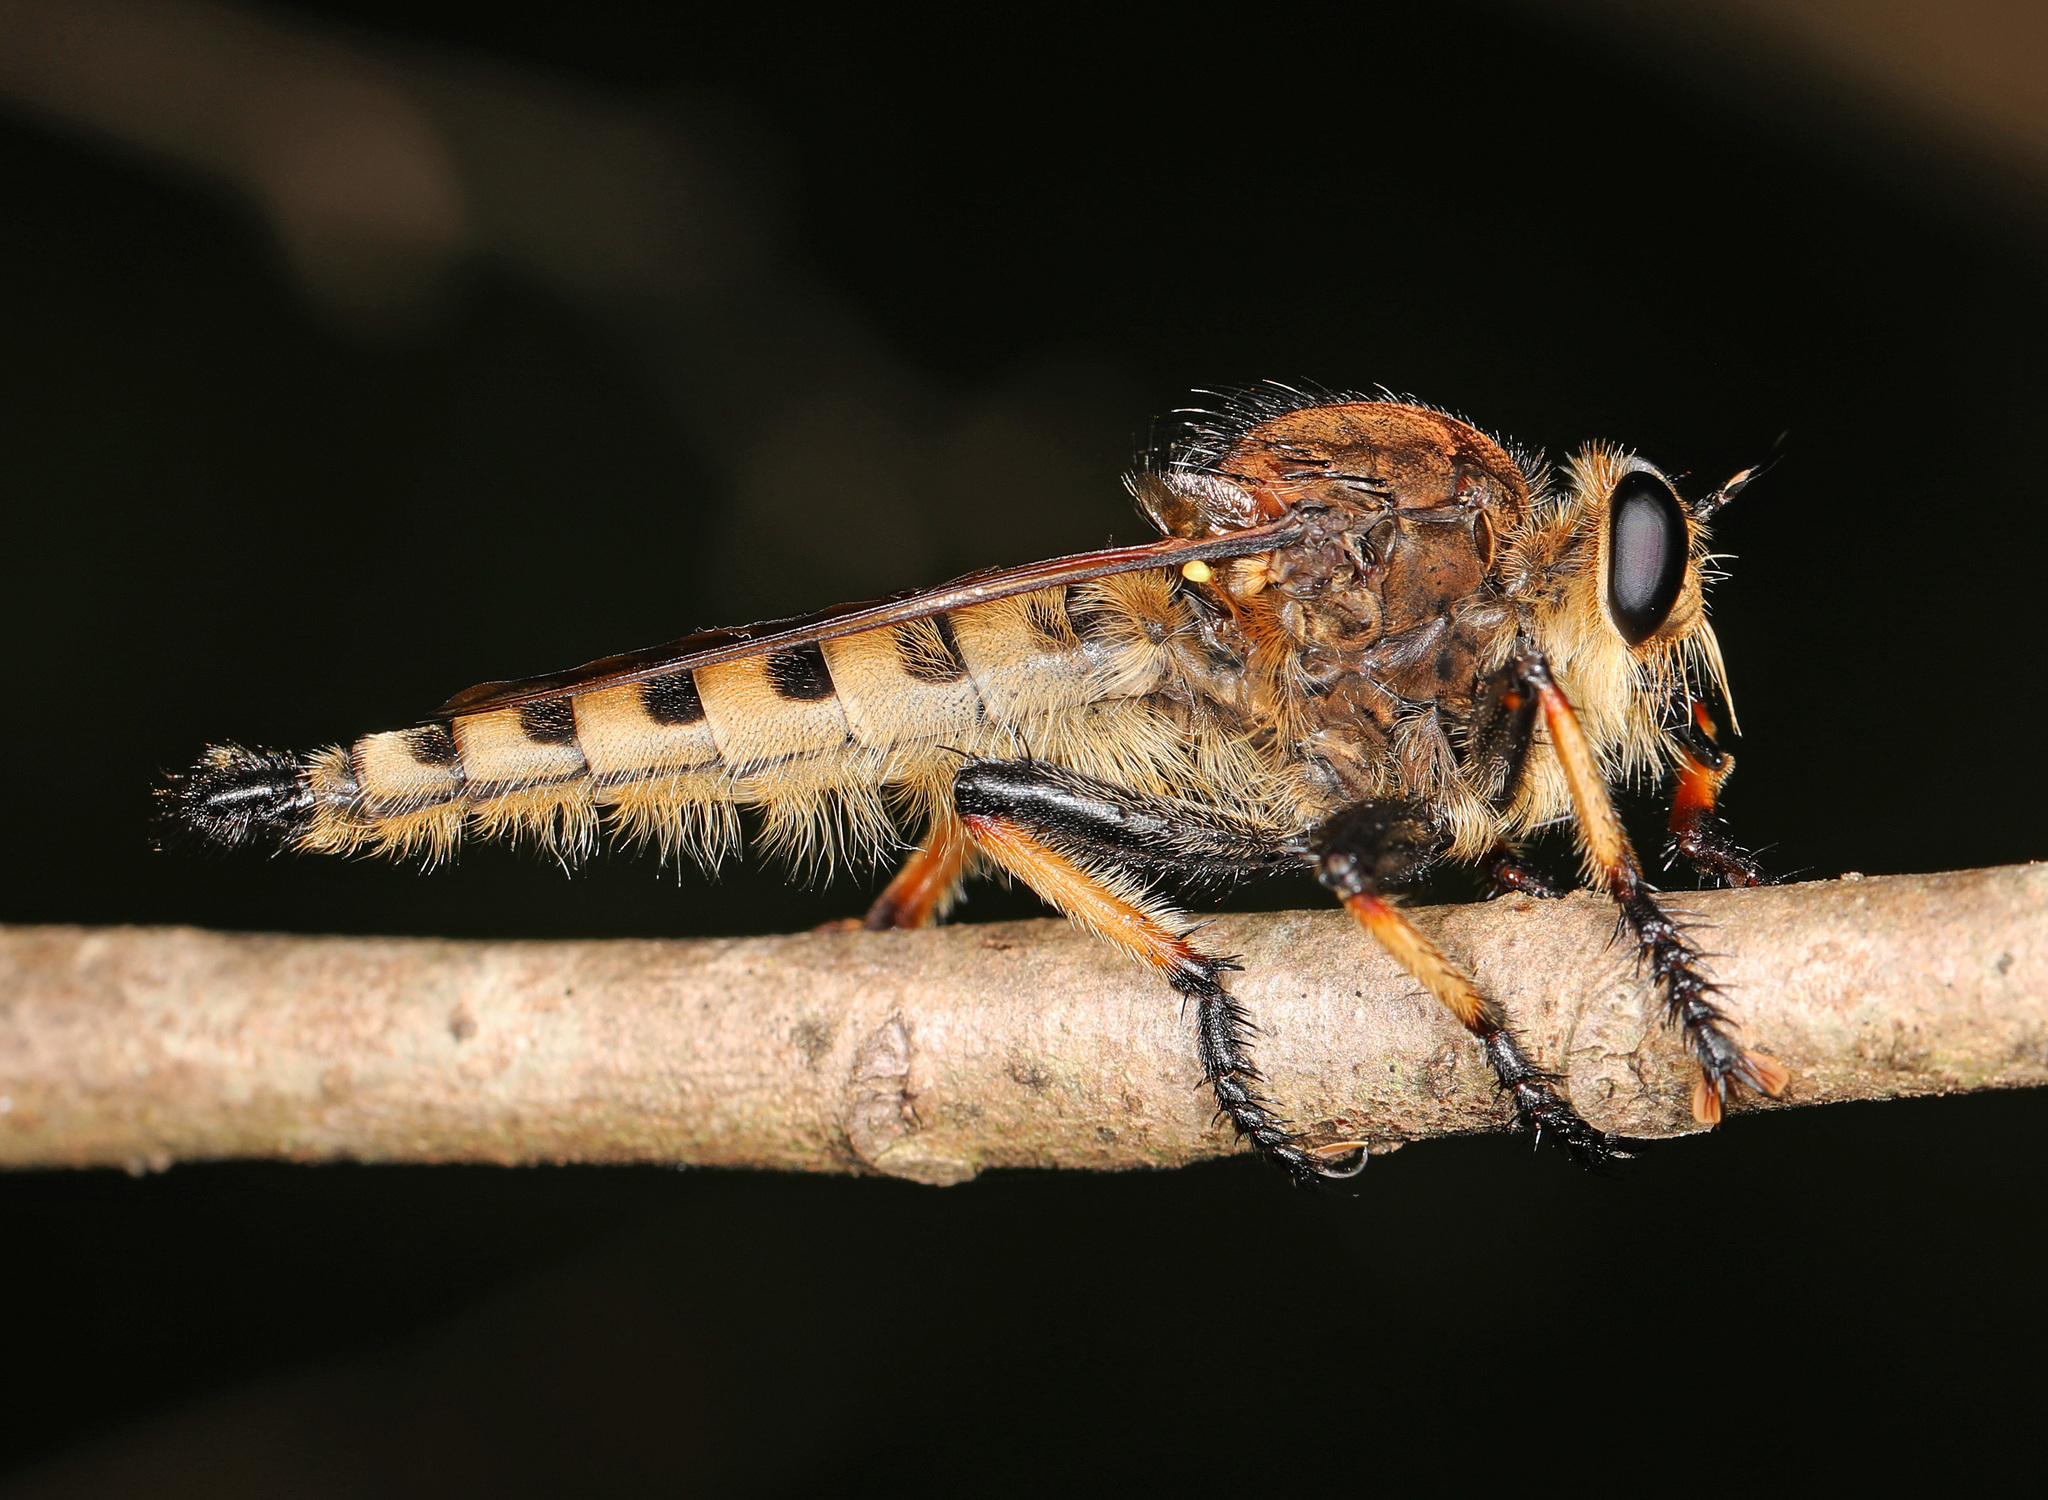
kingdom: Animalia
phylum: Arthropoda
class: Insecta
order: Diptera
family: Asilidae
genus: Promachus
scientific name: Promachus rufipes
